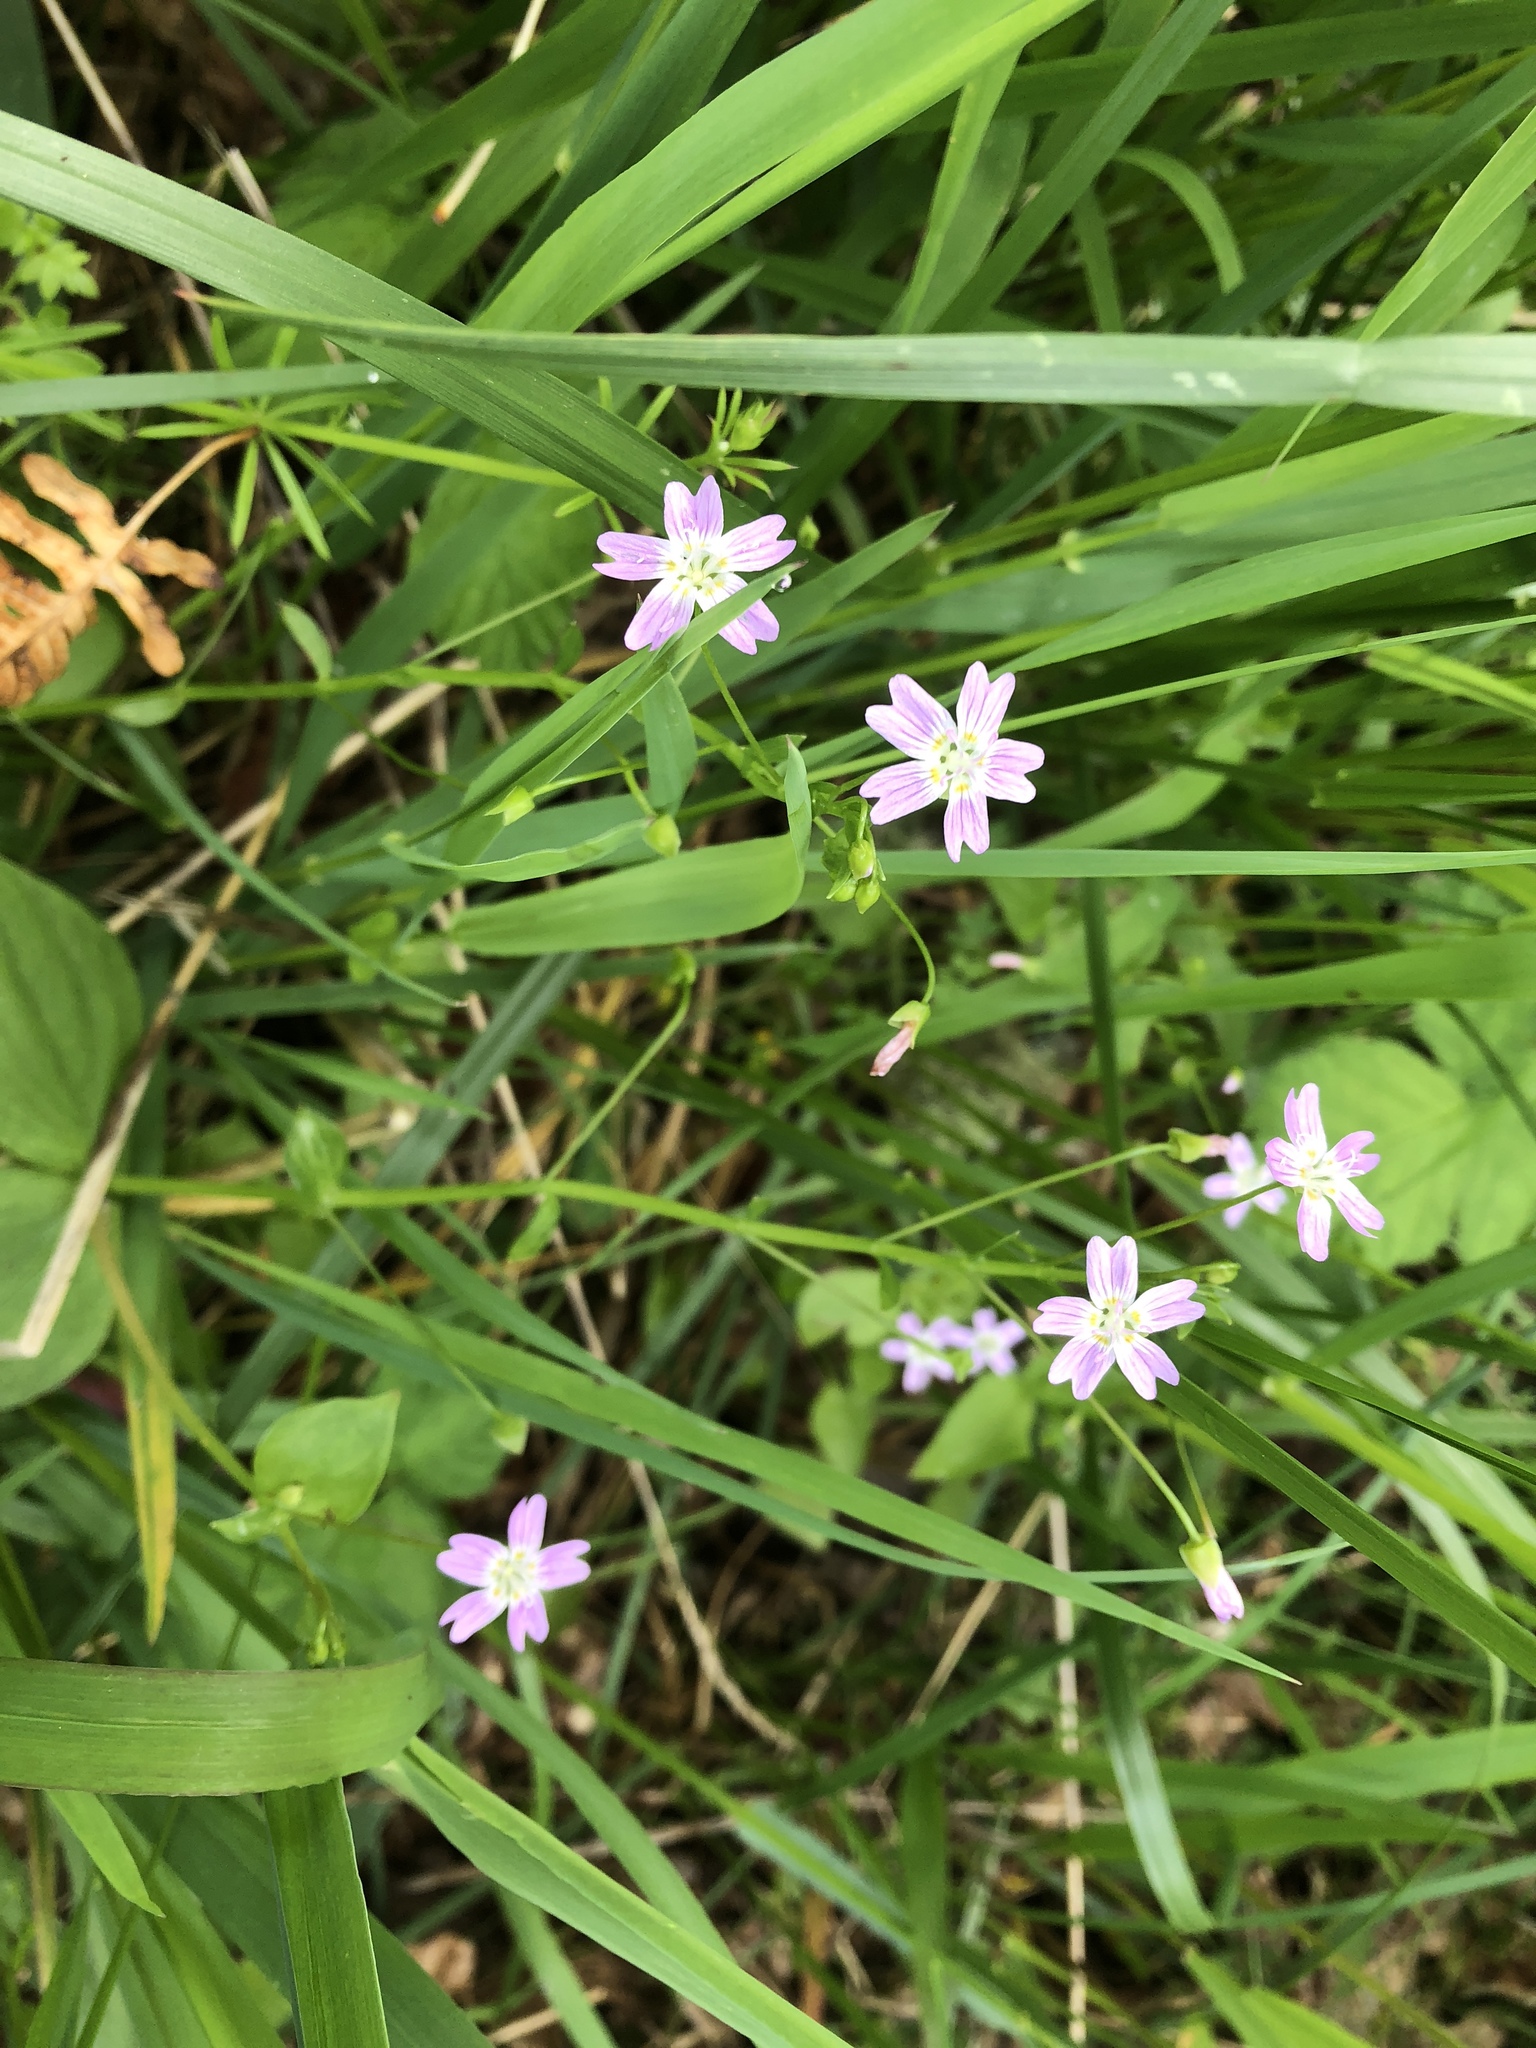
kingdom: Plantae
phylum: Tracheophyta
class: Magnoliopsida
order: Caryophyllales
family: Montiaceae
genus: Claytonia
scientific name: Claytonia sibirica
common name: Pink purslane
